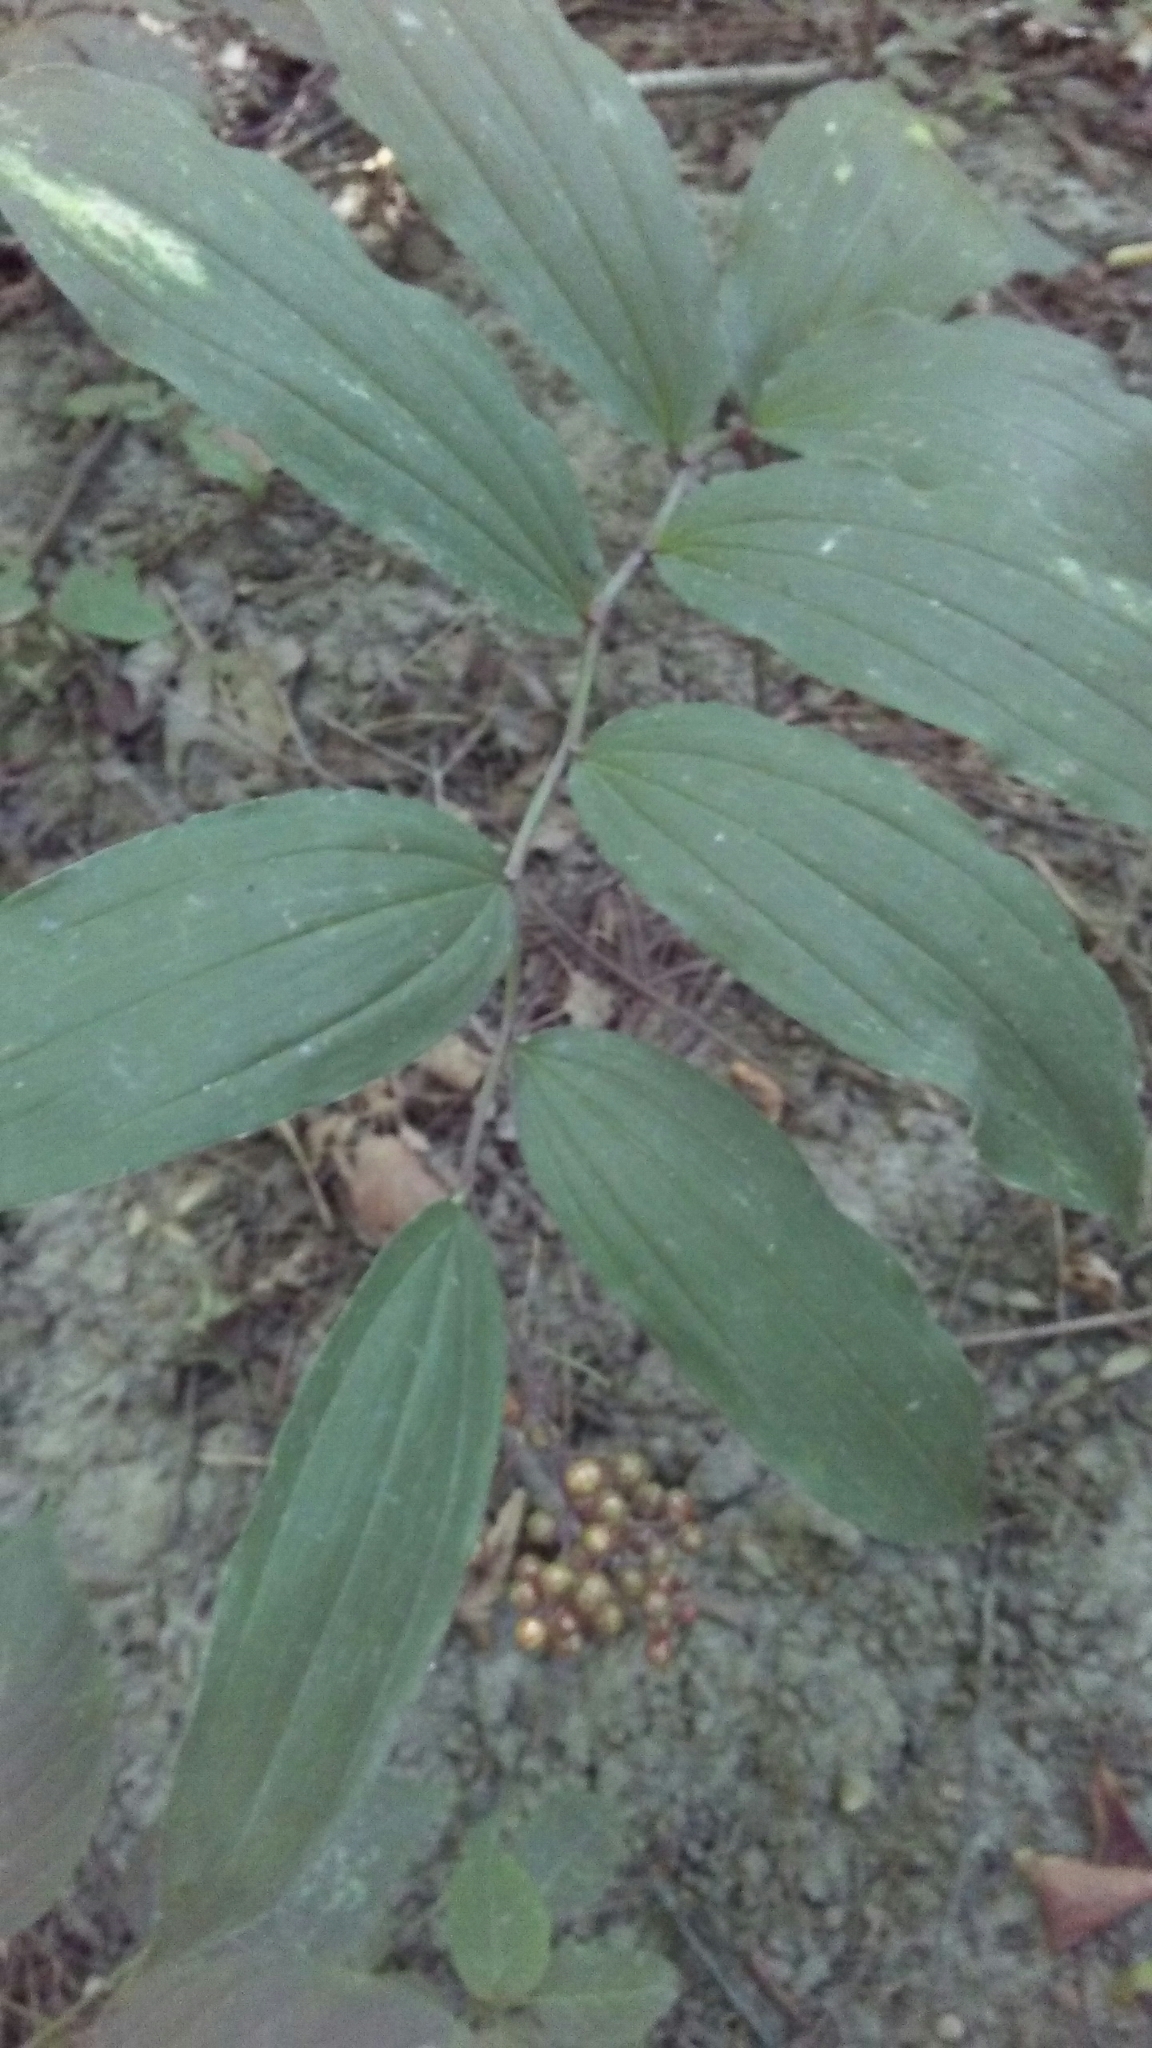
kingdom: Plantae
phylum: Tracheophyta
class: Liliopsida
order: Asparagales
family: Asparagaceae
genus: Maianthemum
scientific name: Maianthemum racemosum
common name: False spikenard
